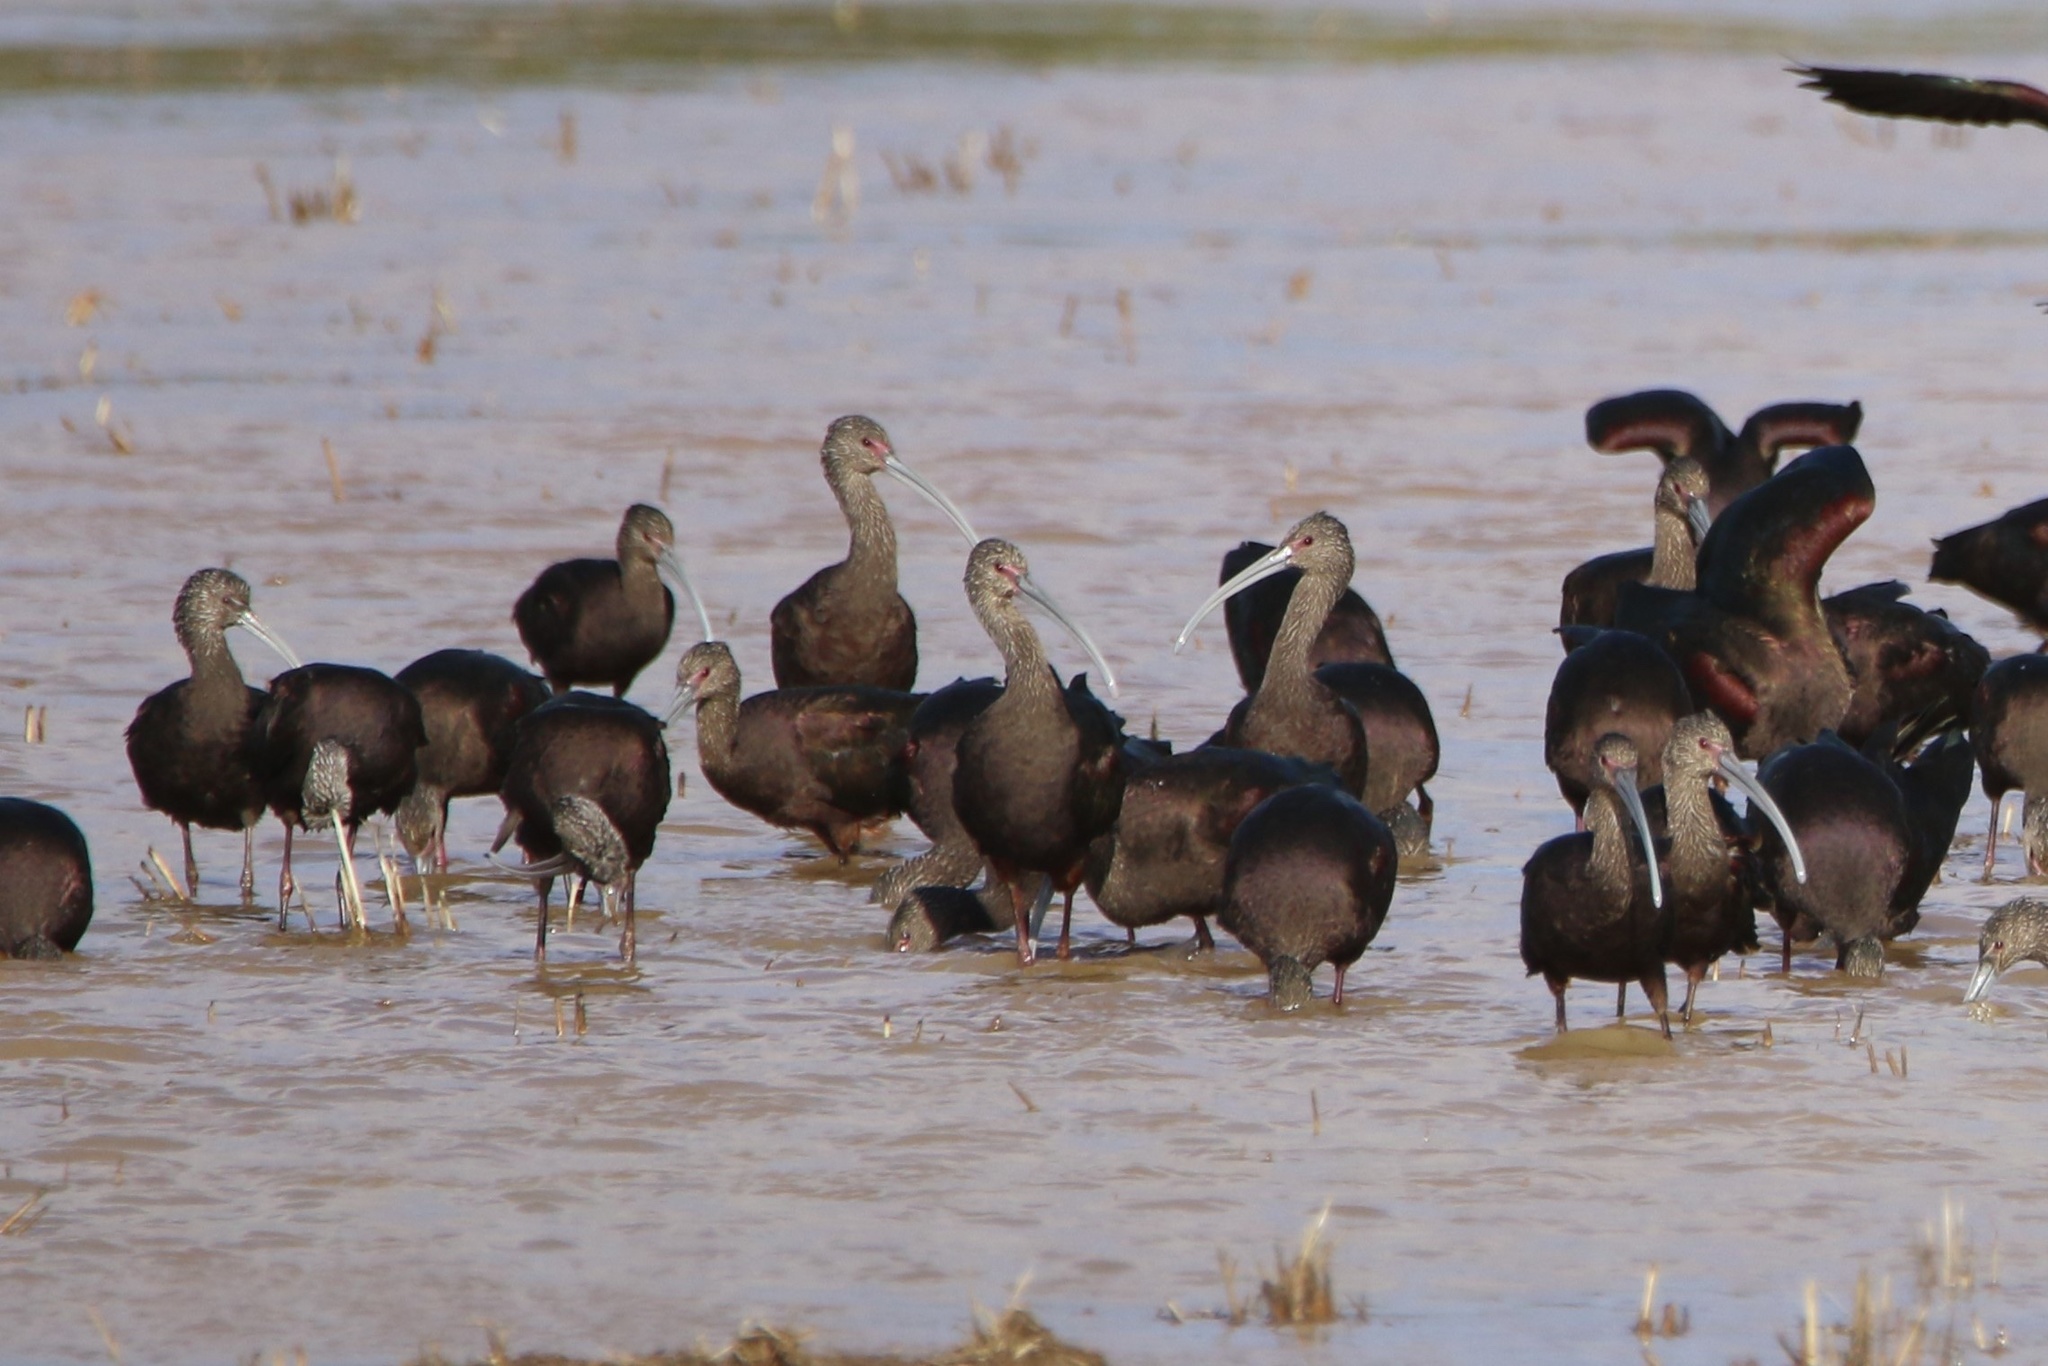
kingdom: Animalia
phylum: Chordata
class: Aves
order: Pelecaniformes
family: Threskiornithidae
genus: Plegadis
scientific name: Plegadis chihi
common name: White-faced ibis
